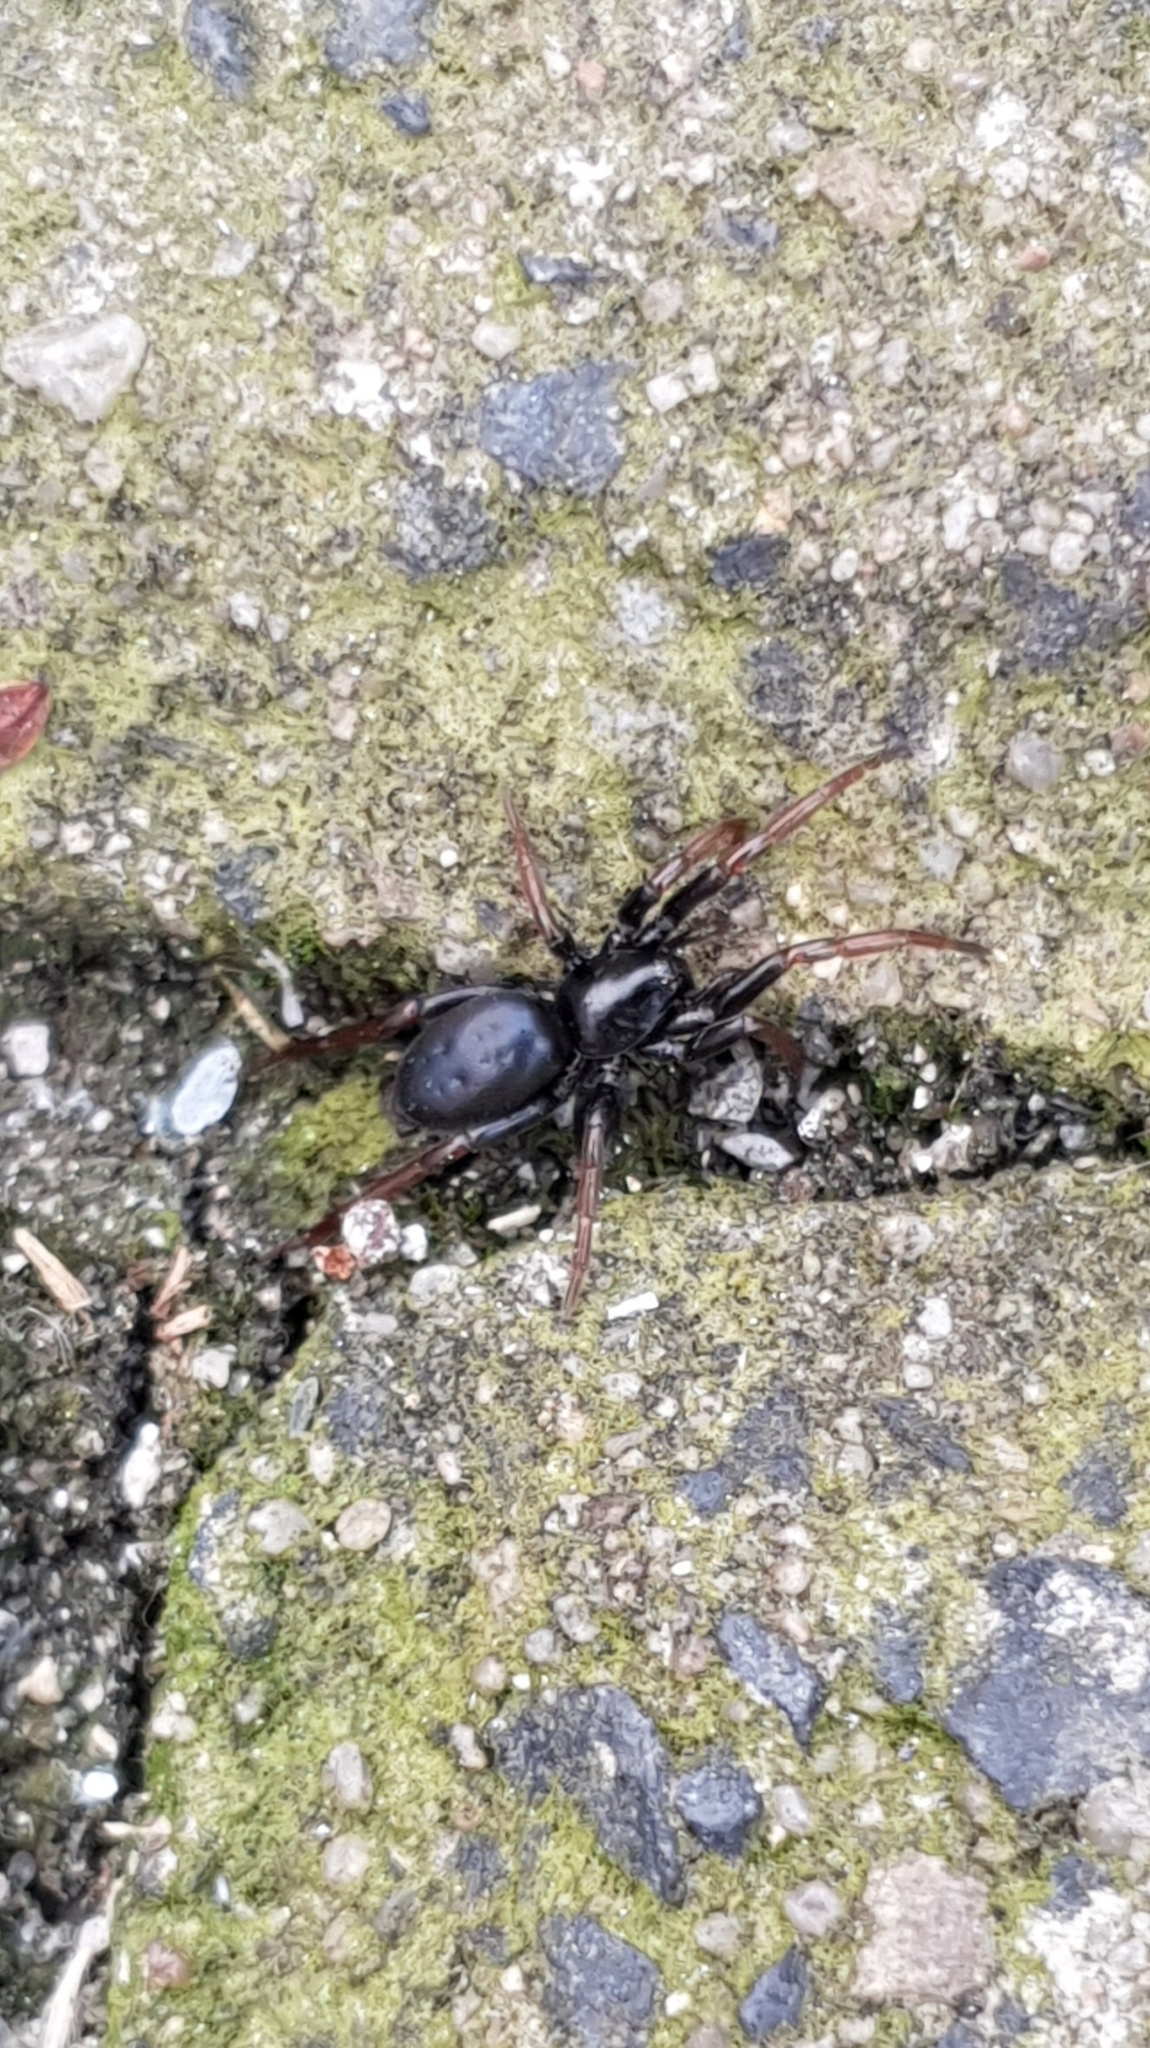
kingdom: Animalia
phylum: Arthropoda
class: Arachnida
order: Araneae
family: Gnaphosidae
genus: Trachyzelotes
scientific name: Trachyzelotes pedestris
